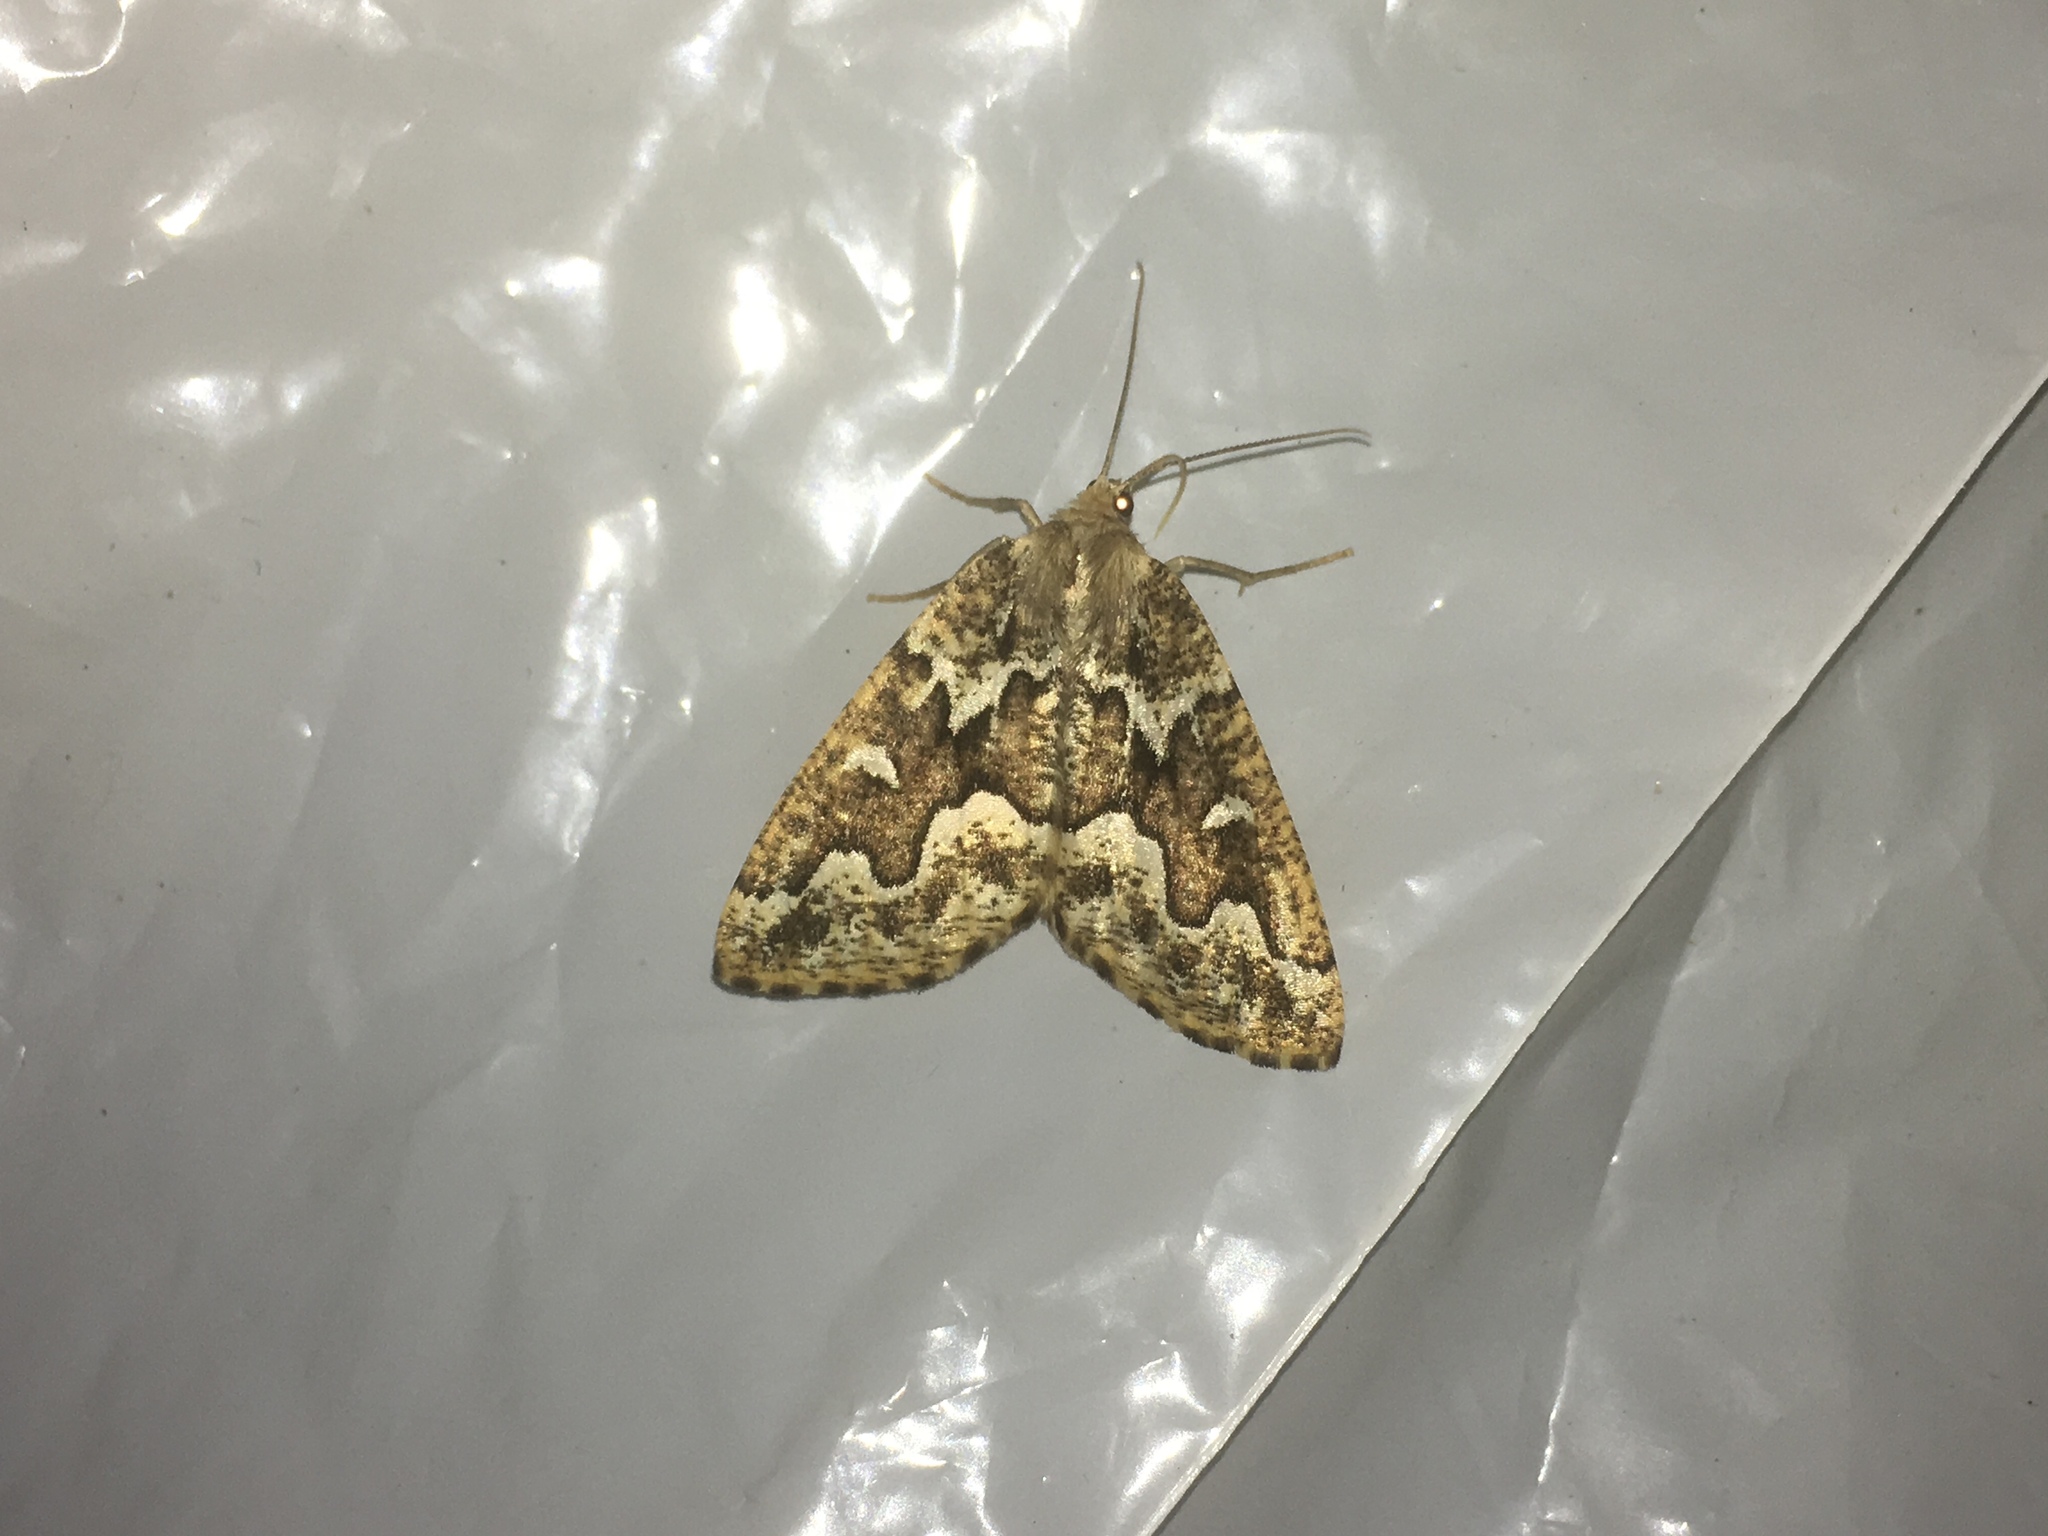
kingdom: Animalia
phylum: Arthropoda
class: Insecta
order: Lepidoptera
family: Geometridae
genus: Caripeta
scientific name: Caripeta divisata
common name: Gray spruce looper
